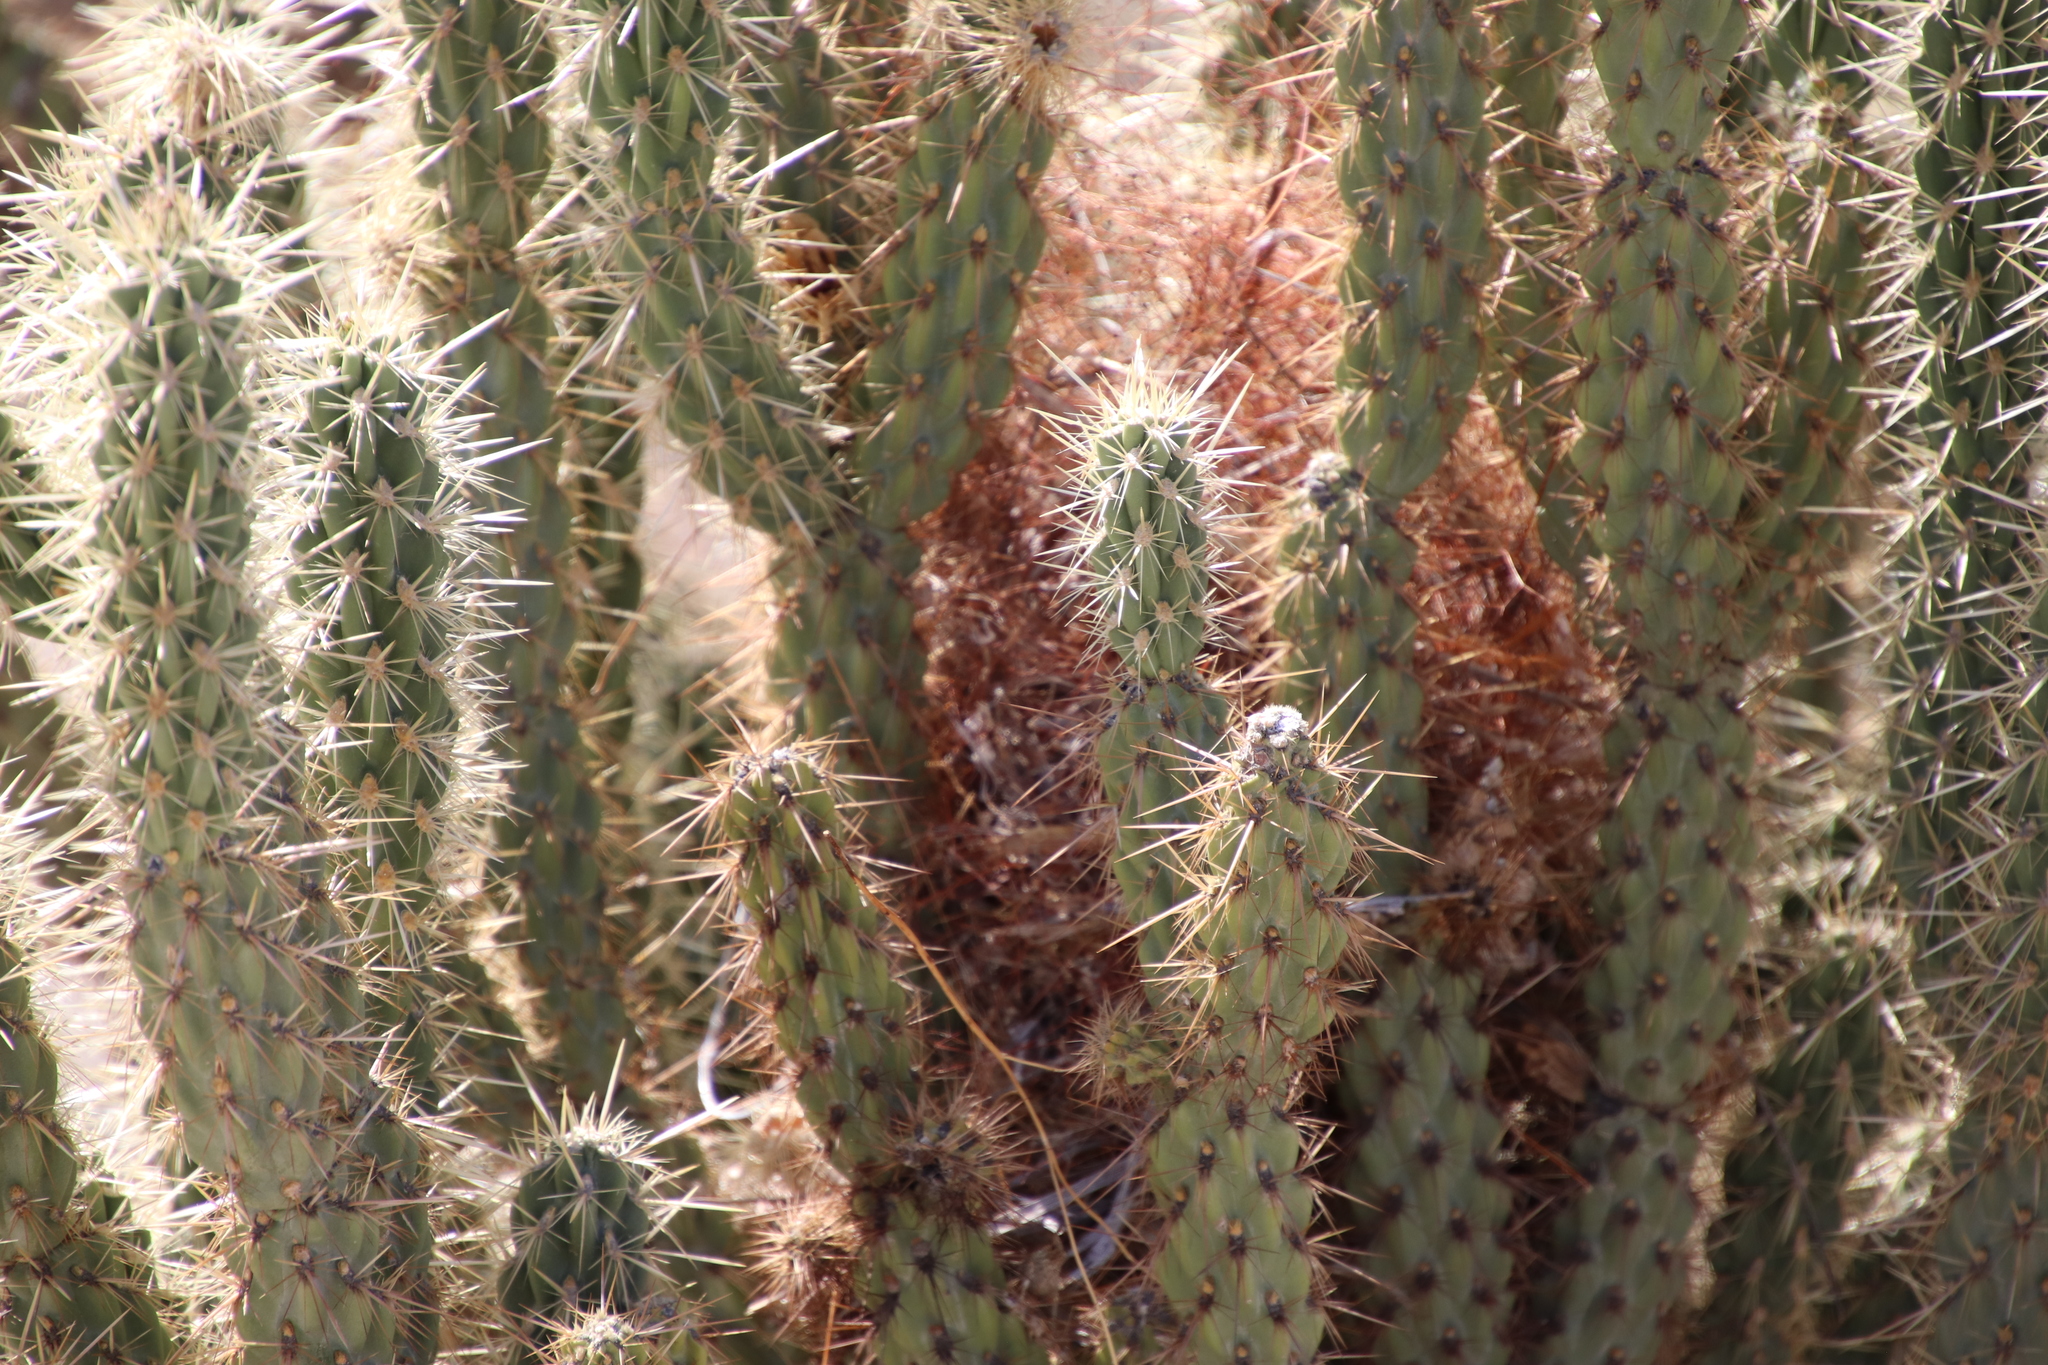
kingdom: Animalia
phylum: Chordata
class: Aves
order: Passeriformes
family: Troglodytidae
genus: Campylorhynchus
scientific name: Campylorhynchus brunneicapillus
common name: Cactus wren
